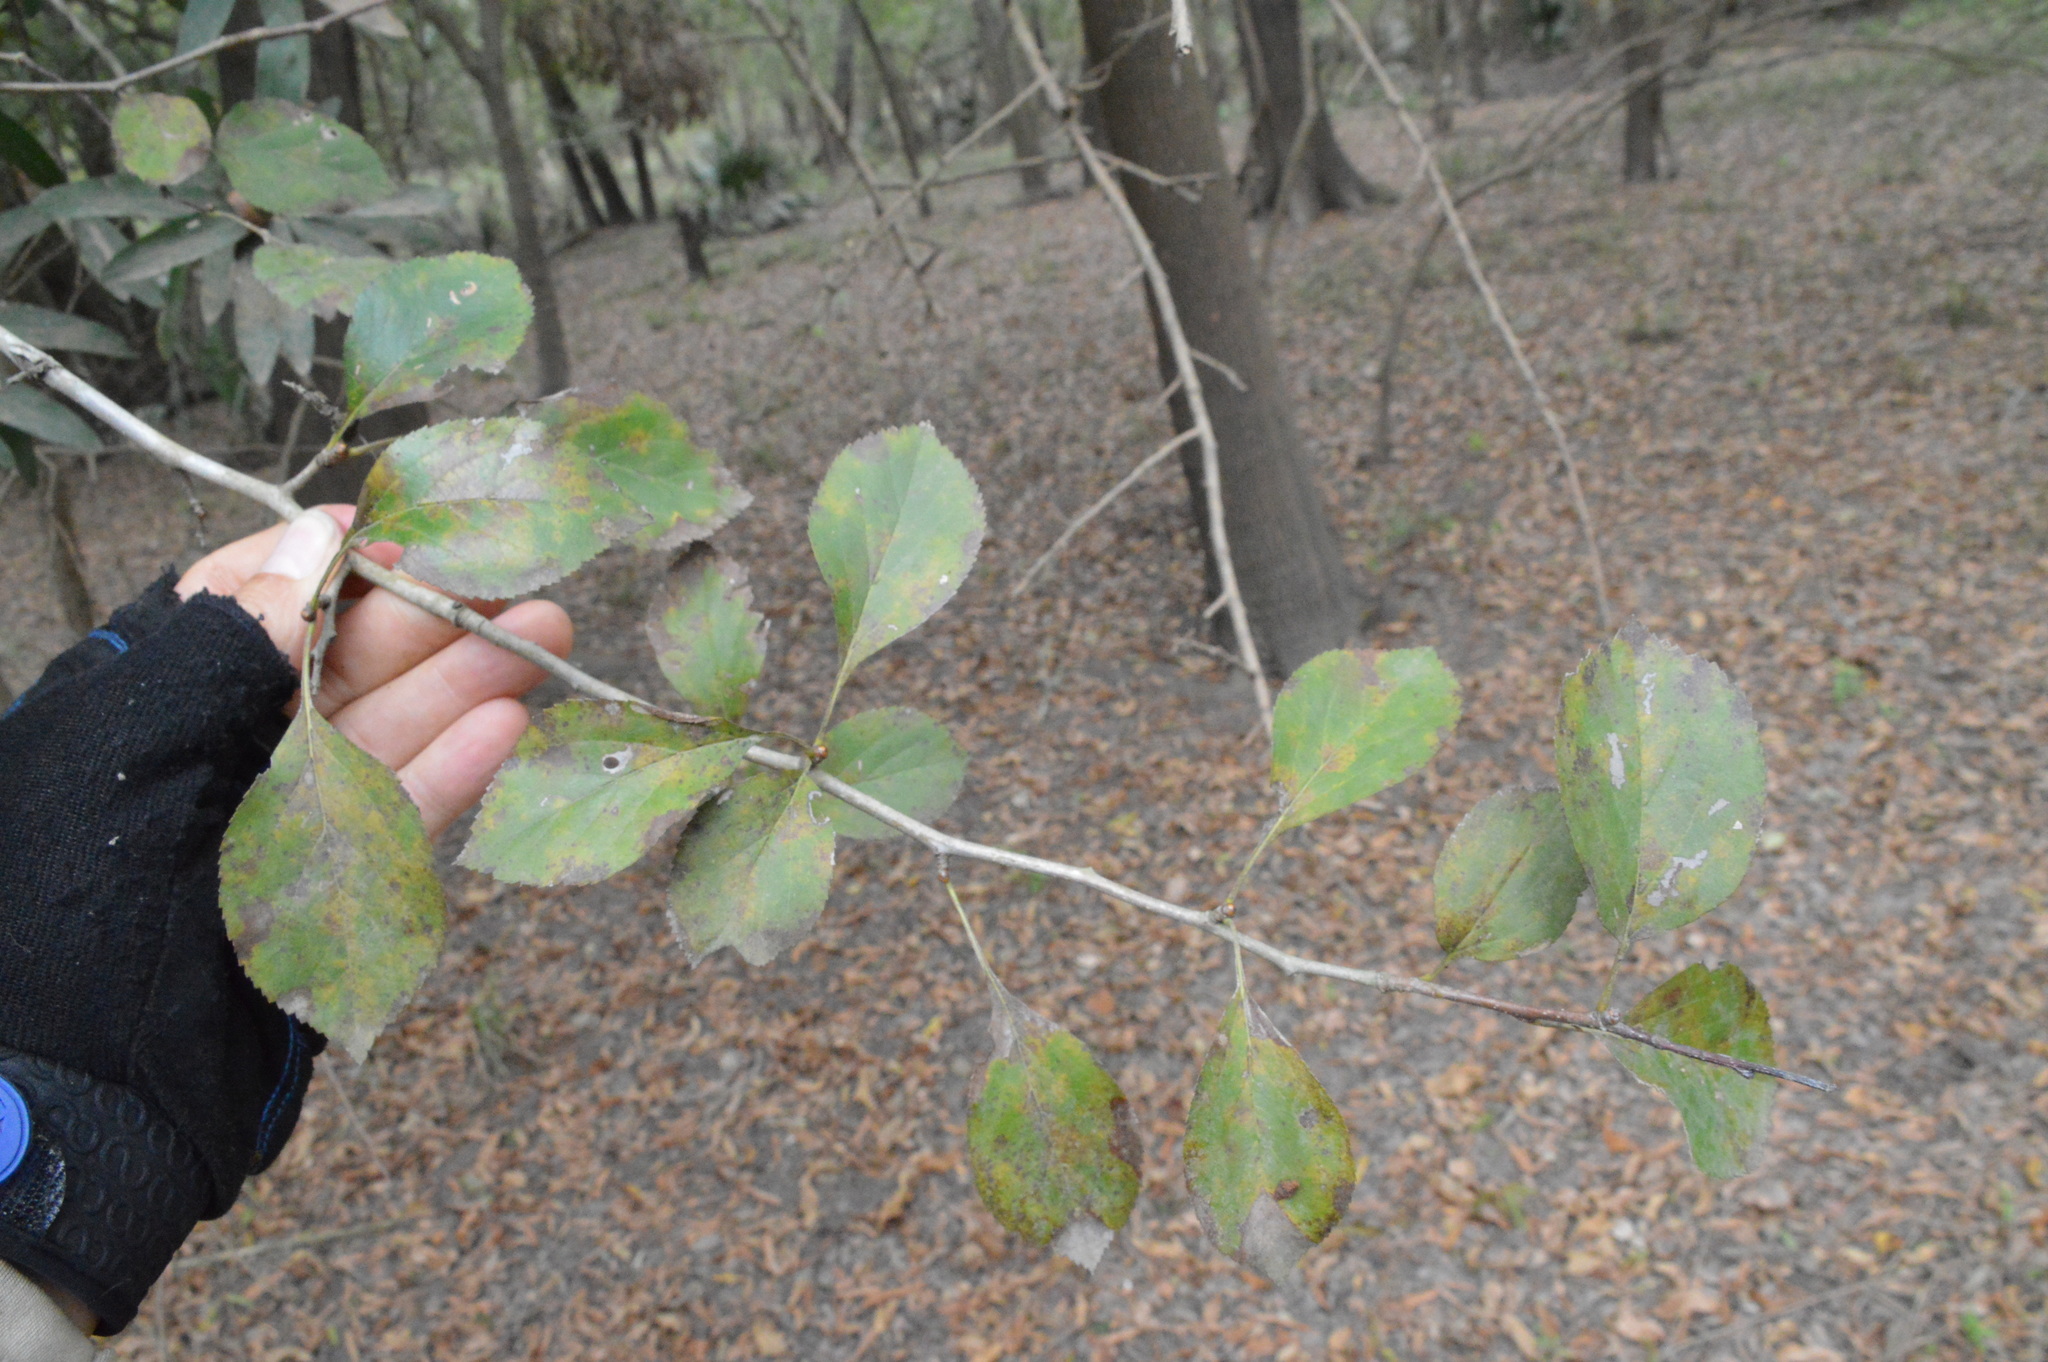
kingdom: Plantae
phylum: Tracheophyta
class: Magnoliopsida
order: Rosales
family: Rosaceae
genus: Crataegus
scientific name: Crataegus viridis
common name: Southernthorn
